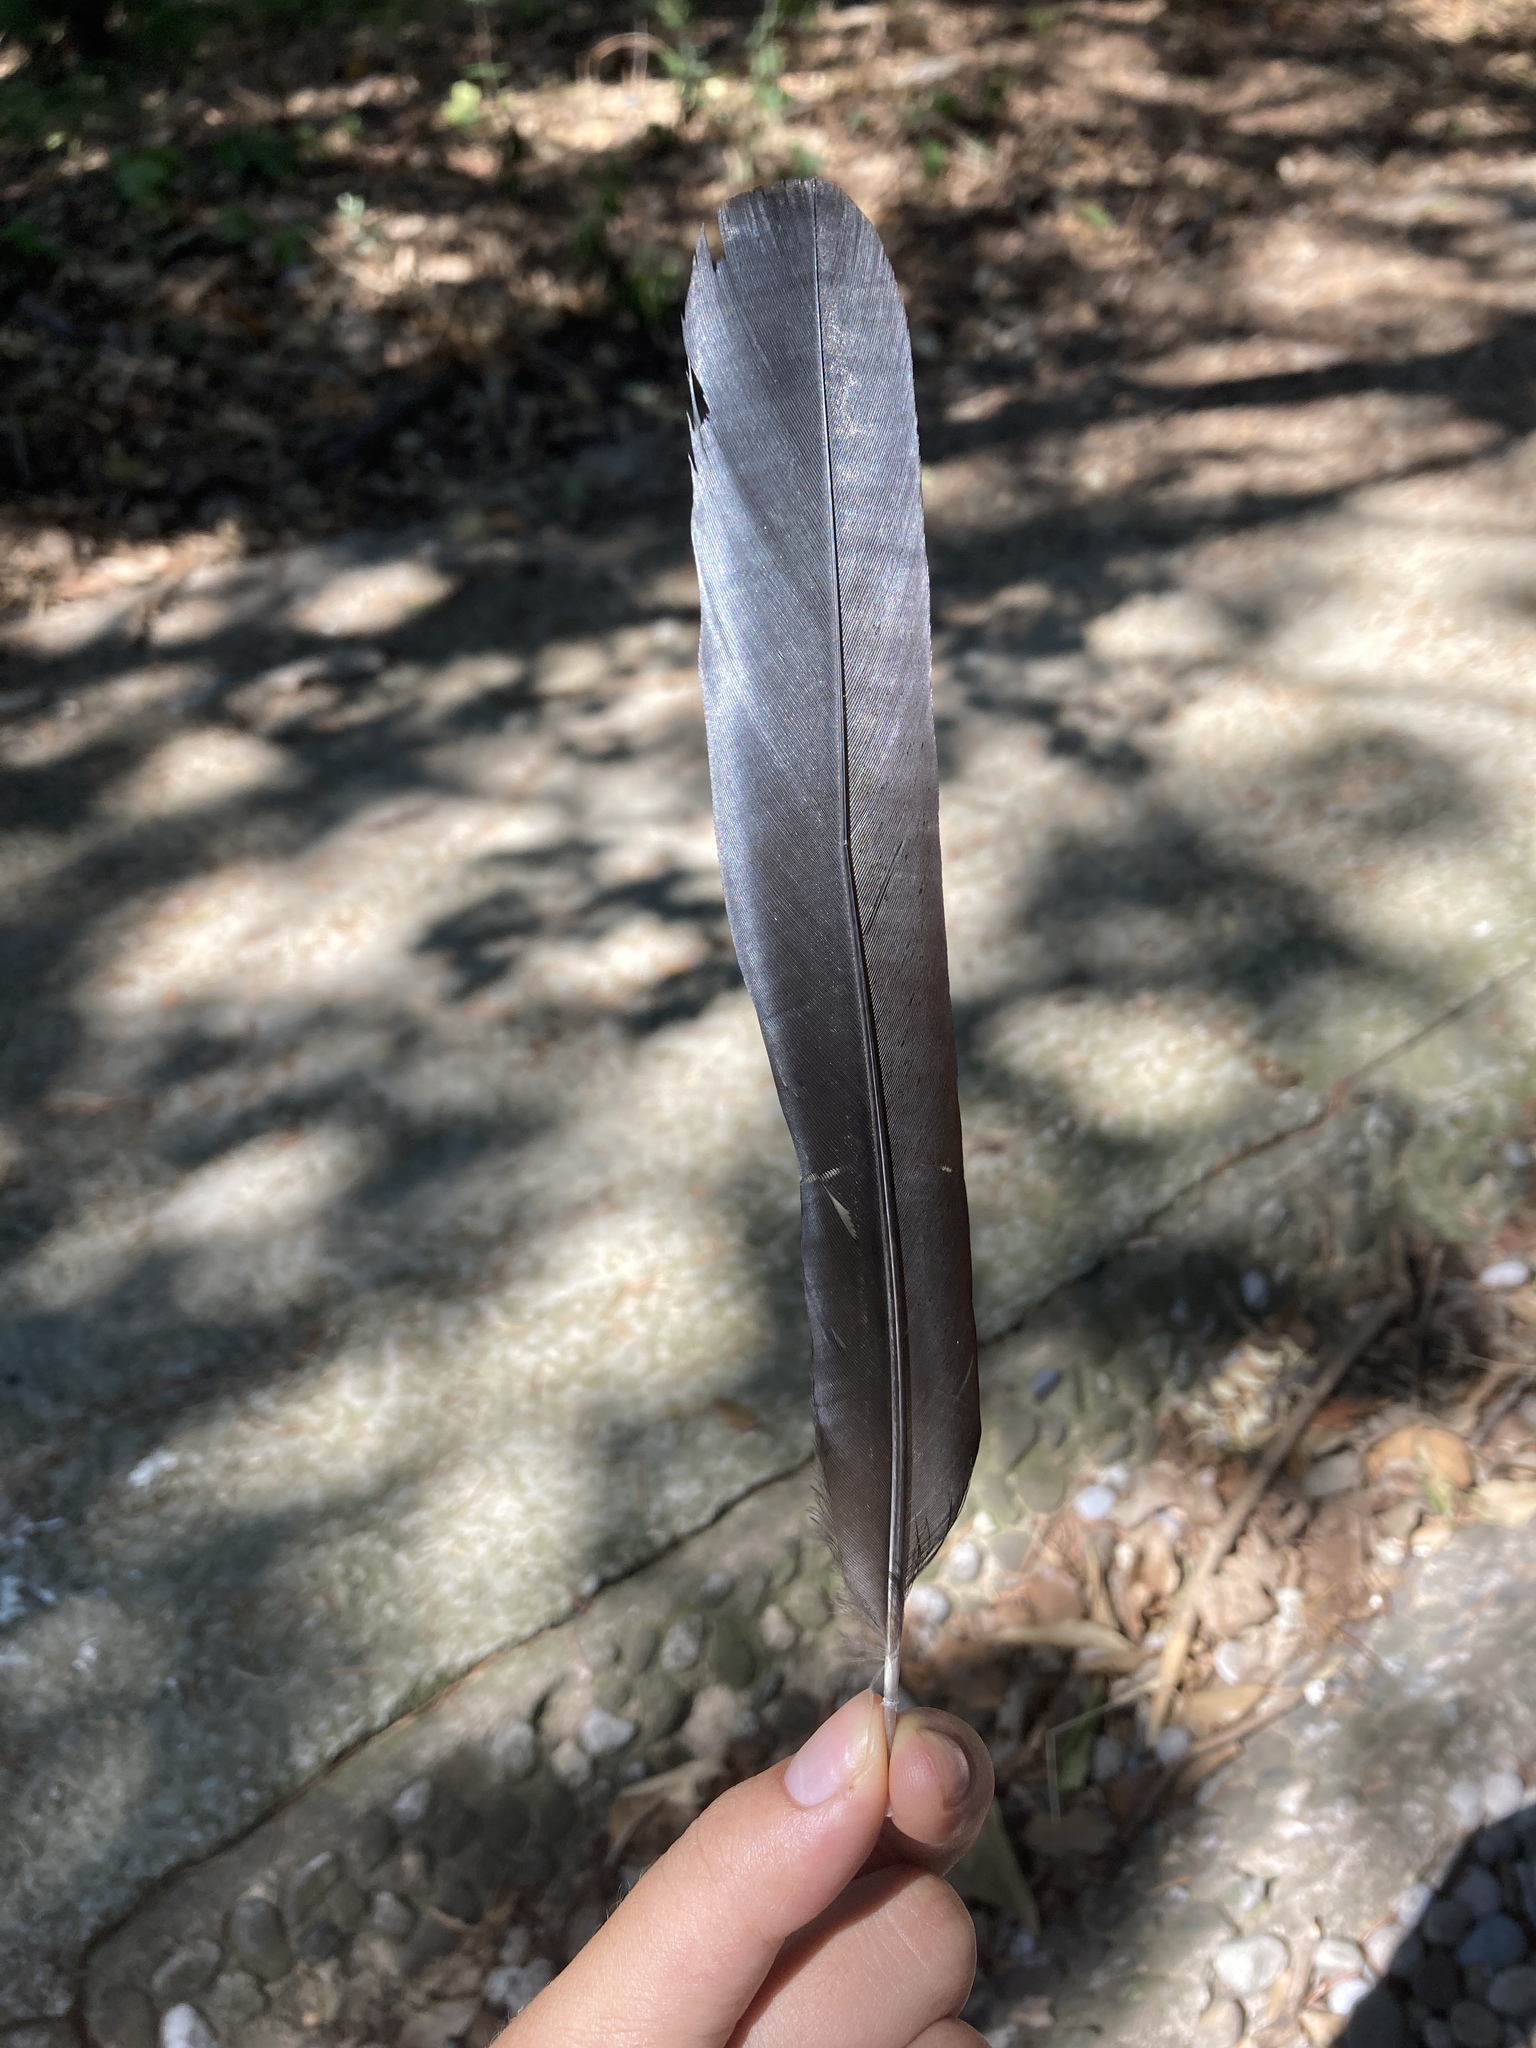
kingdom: Animalia
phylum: Chordata
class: Aves
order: Passeriformes
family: Corvidae
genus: Pica
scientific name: Pica pica
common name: Eurasian magpie
